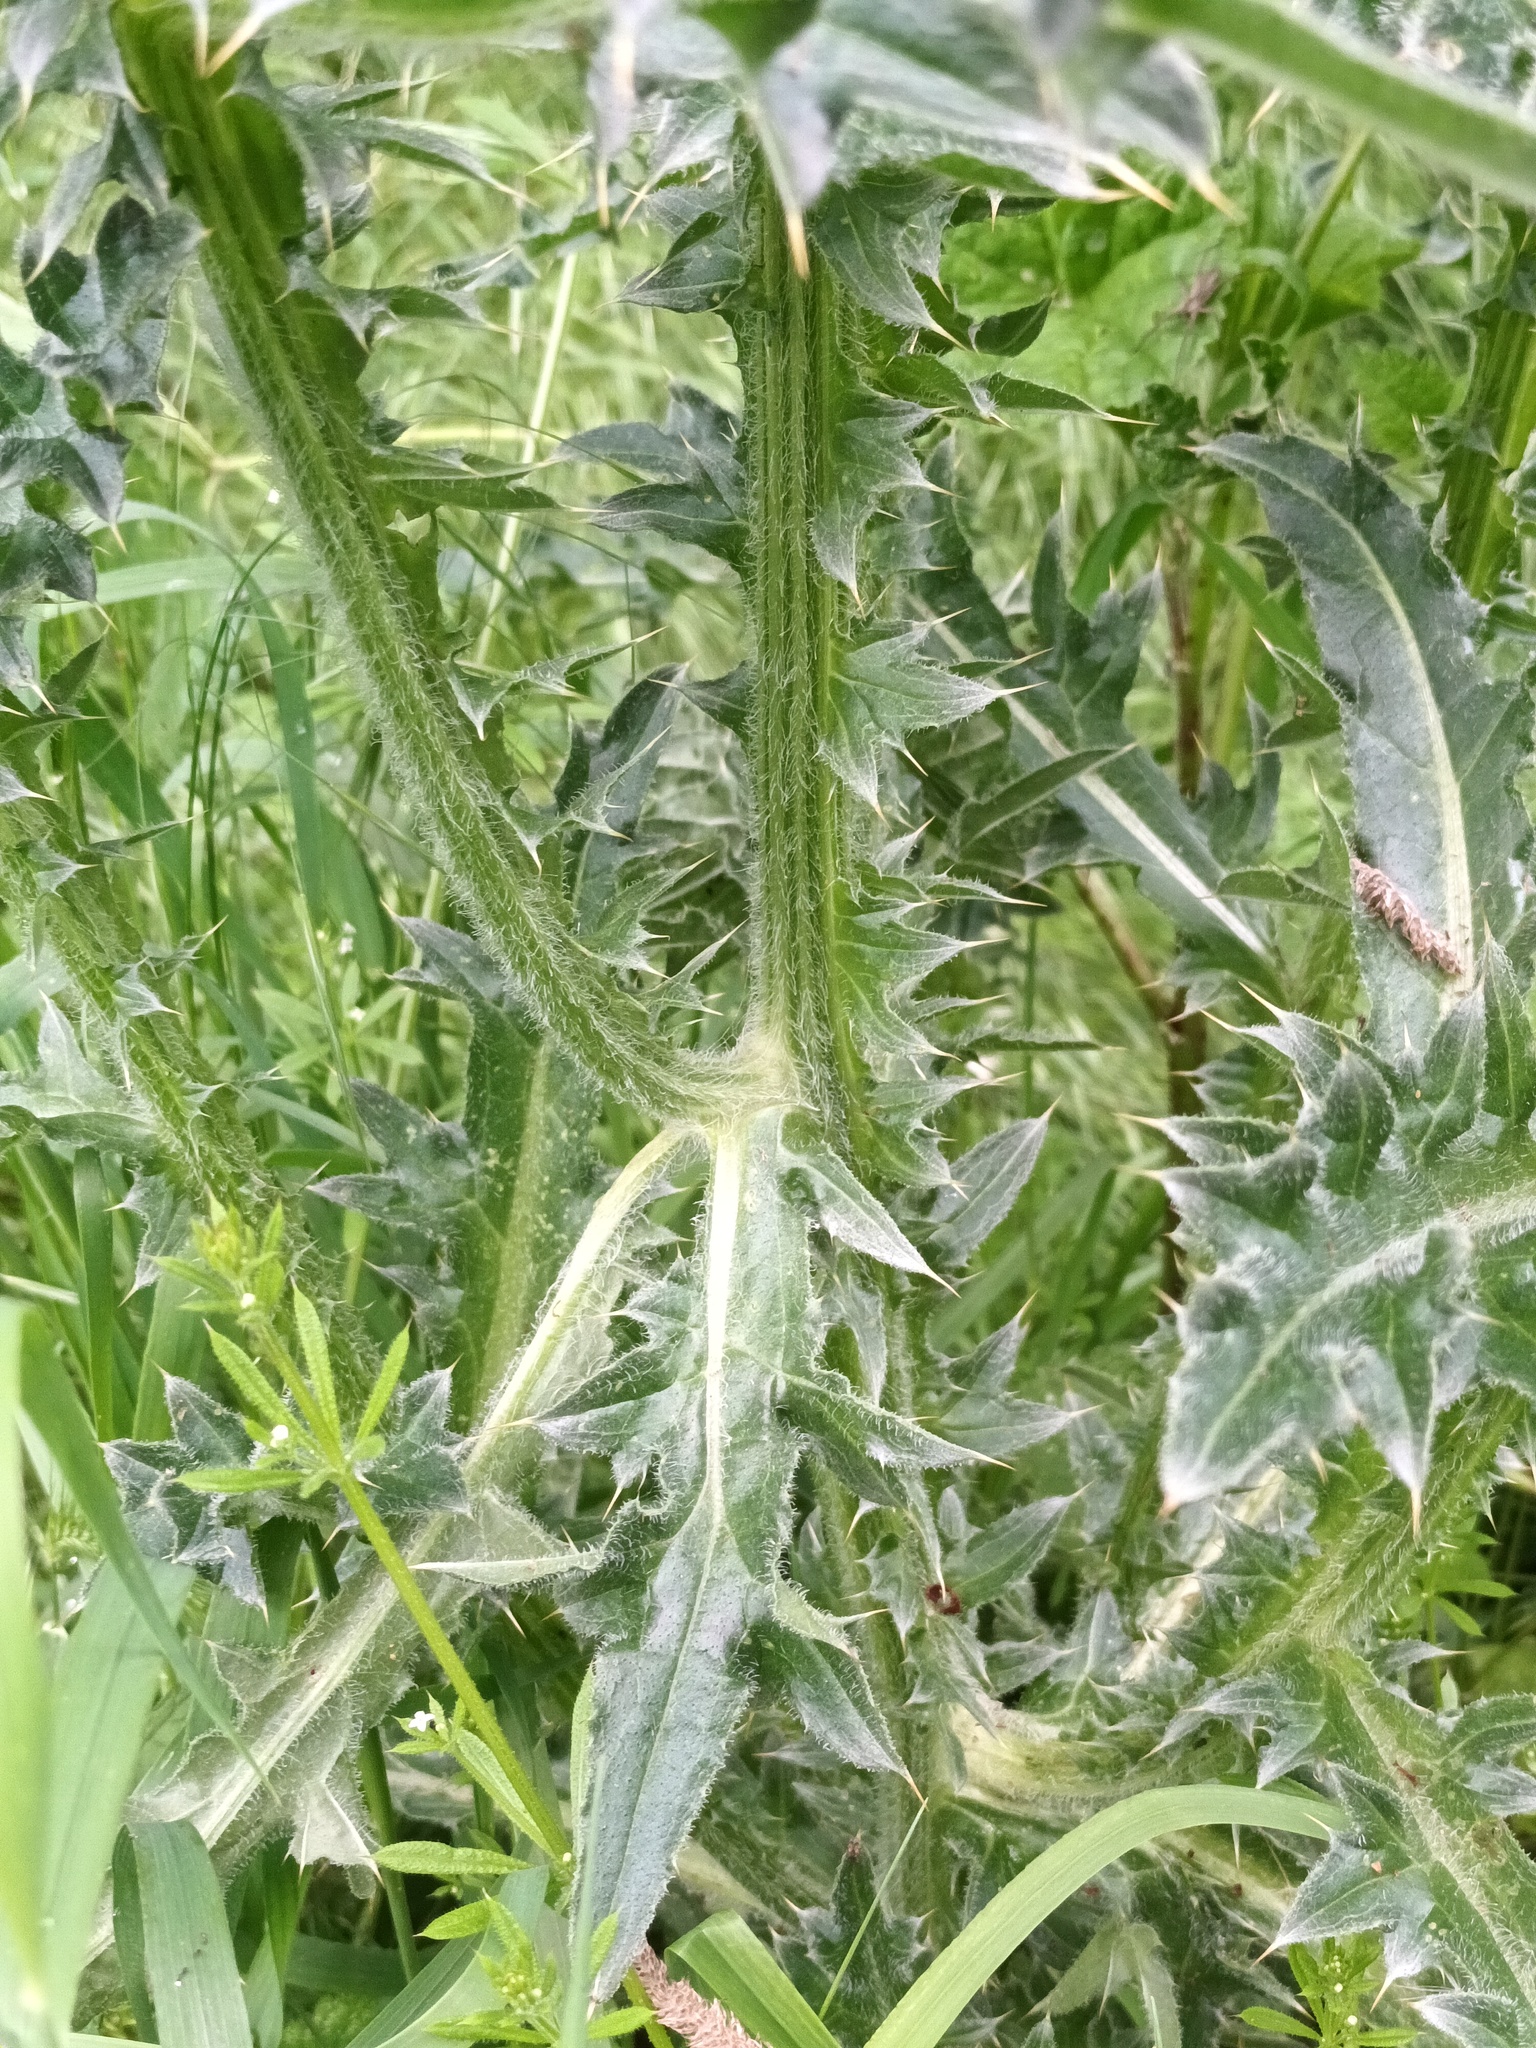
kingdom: Plantae
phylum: Tracheophyta
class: Magnoliopsida
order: Asterales
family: Asteraceae
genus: Carduus
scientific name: Carduus nutans
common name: Musk thistle
